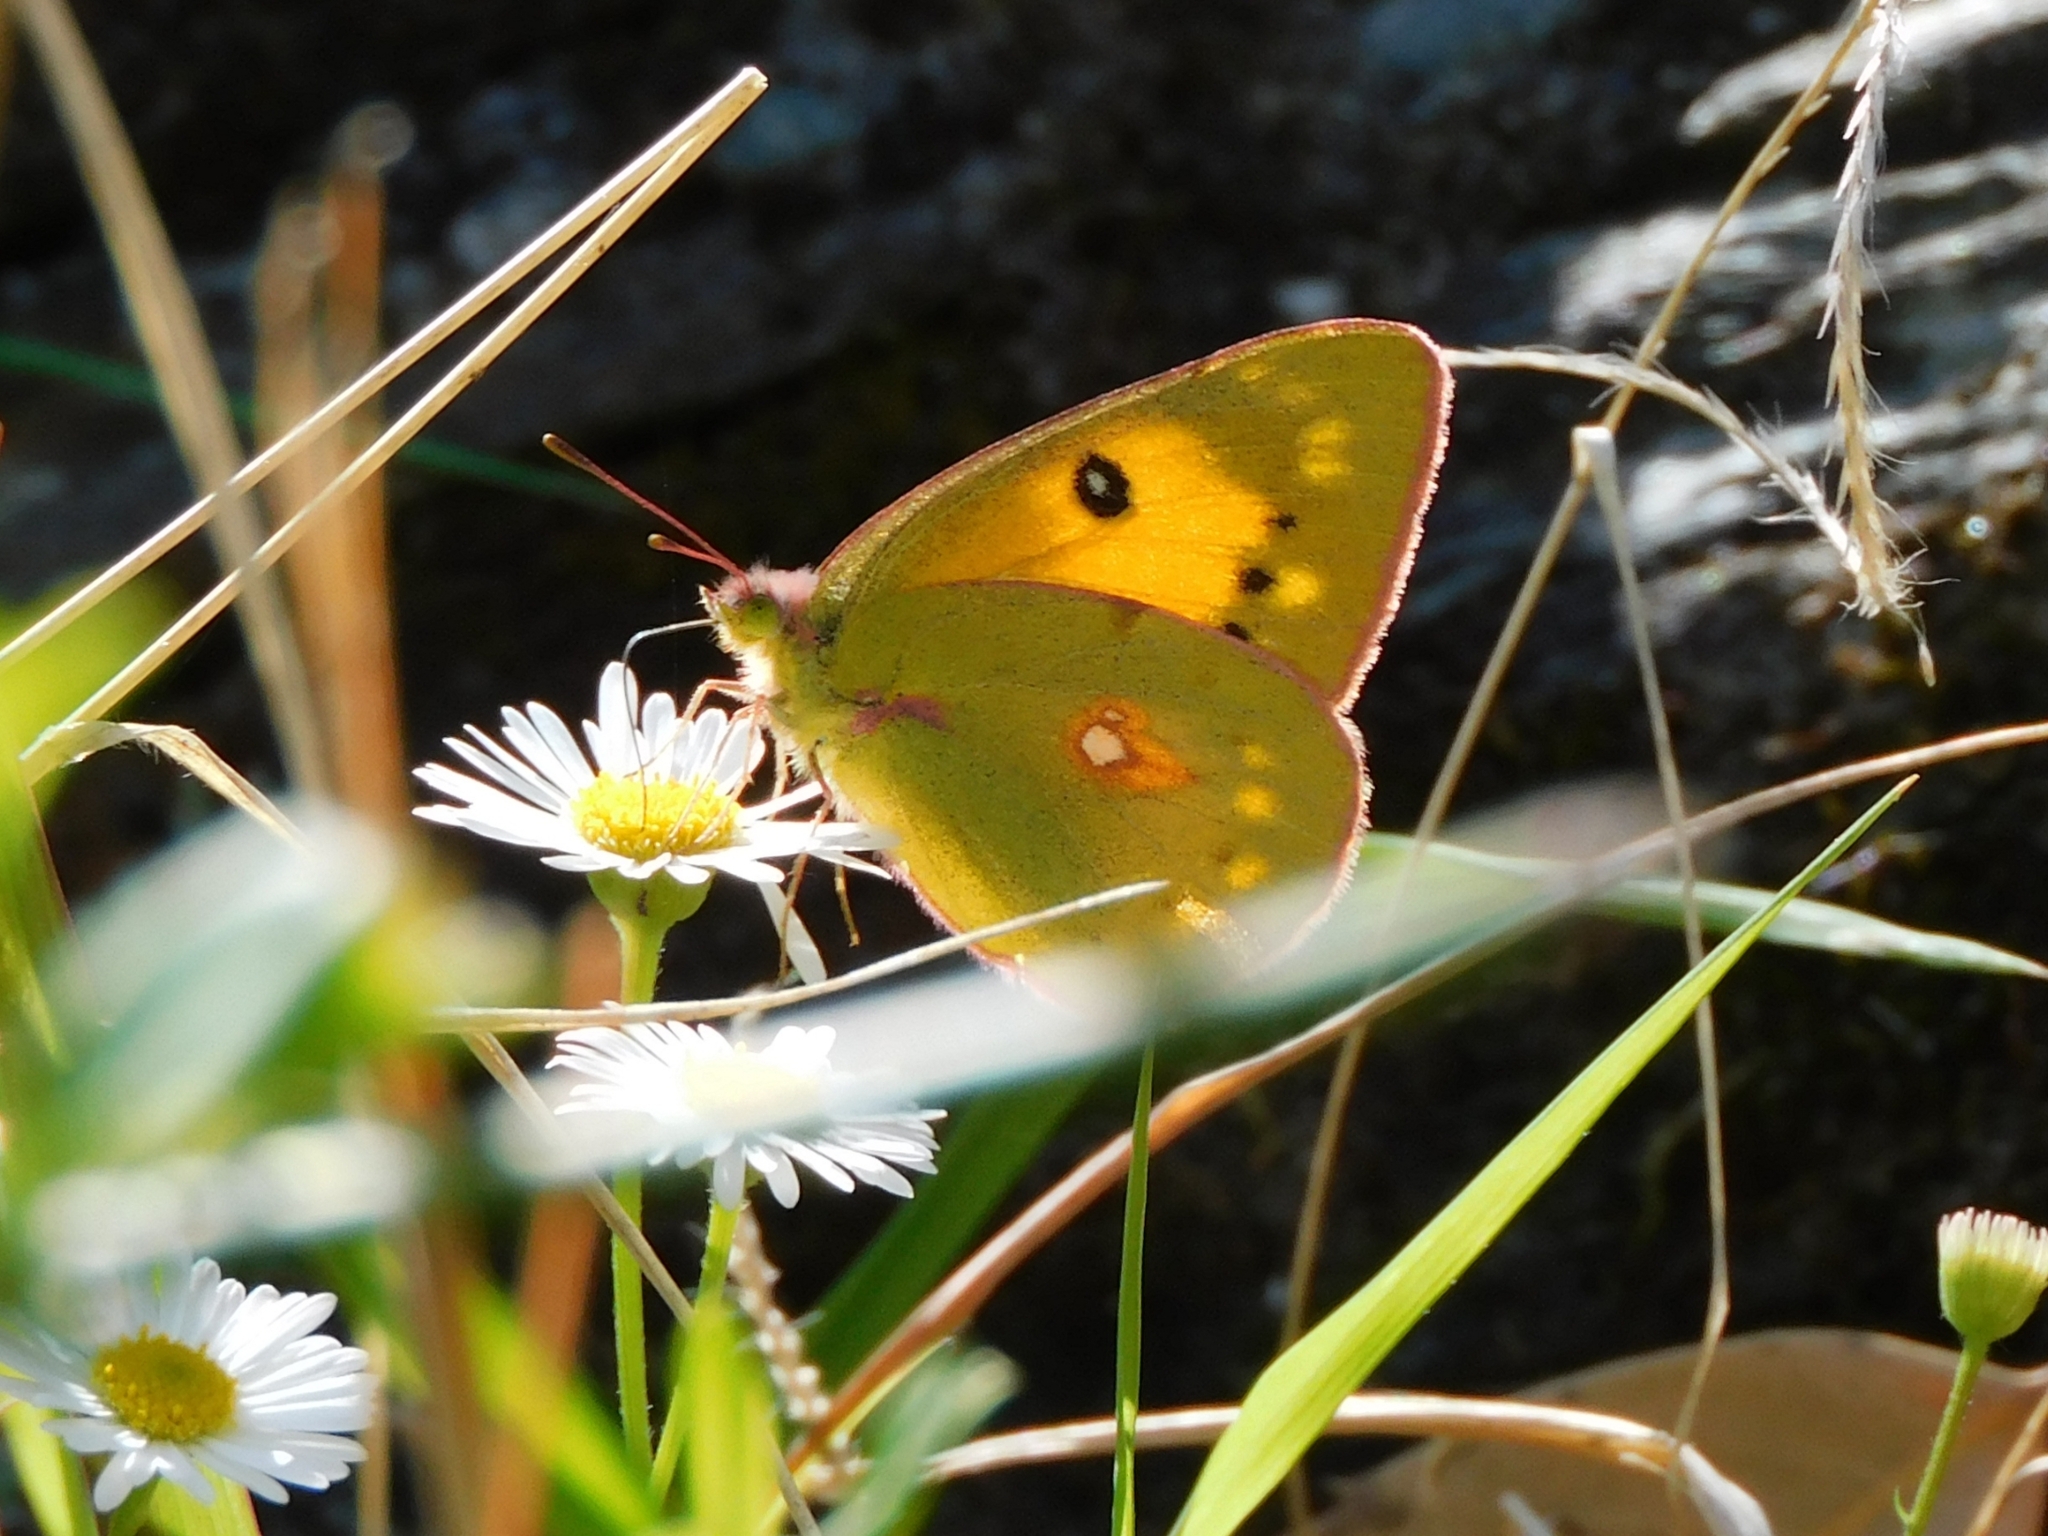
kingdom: Animalia
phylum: Arthropoda
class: Insecta
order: Lepidoptera
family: Pieridae
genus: Colias
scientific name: Colias fieldii
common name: Dark clouded yellow
